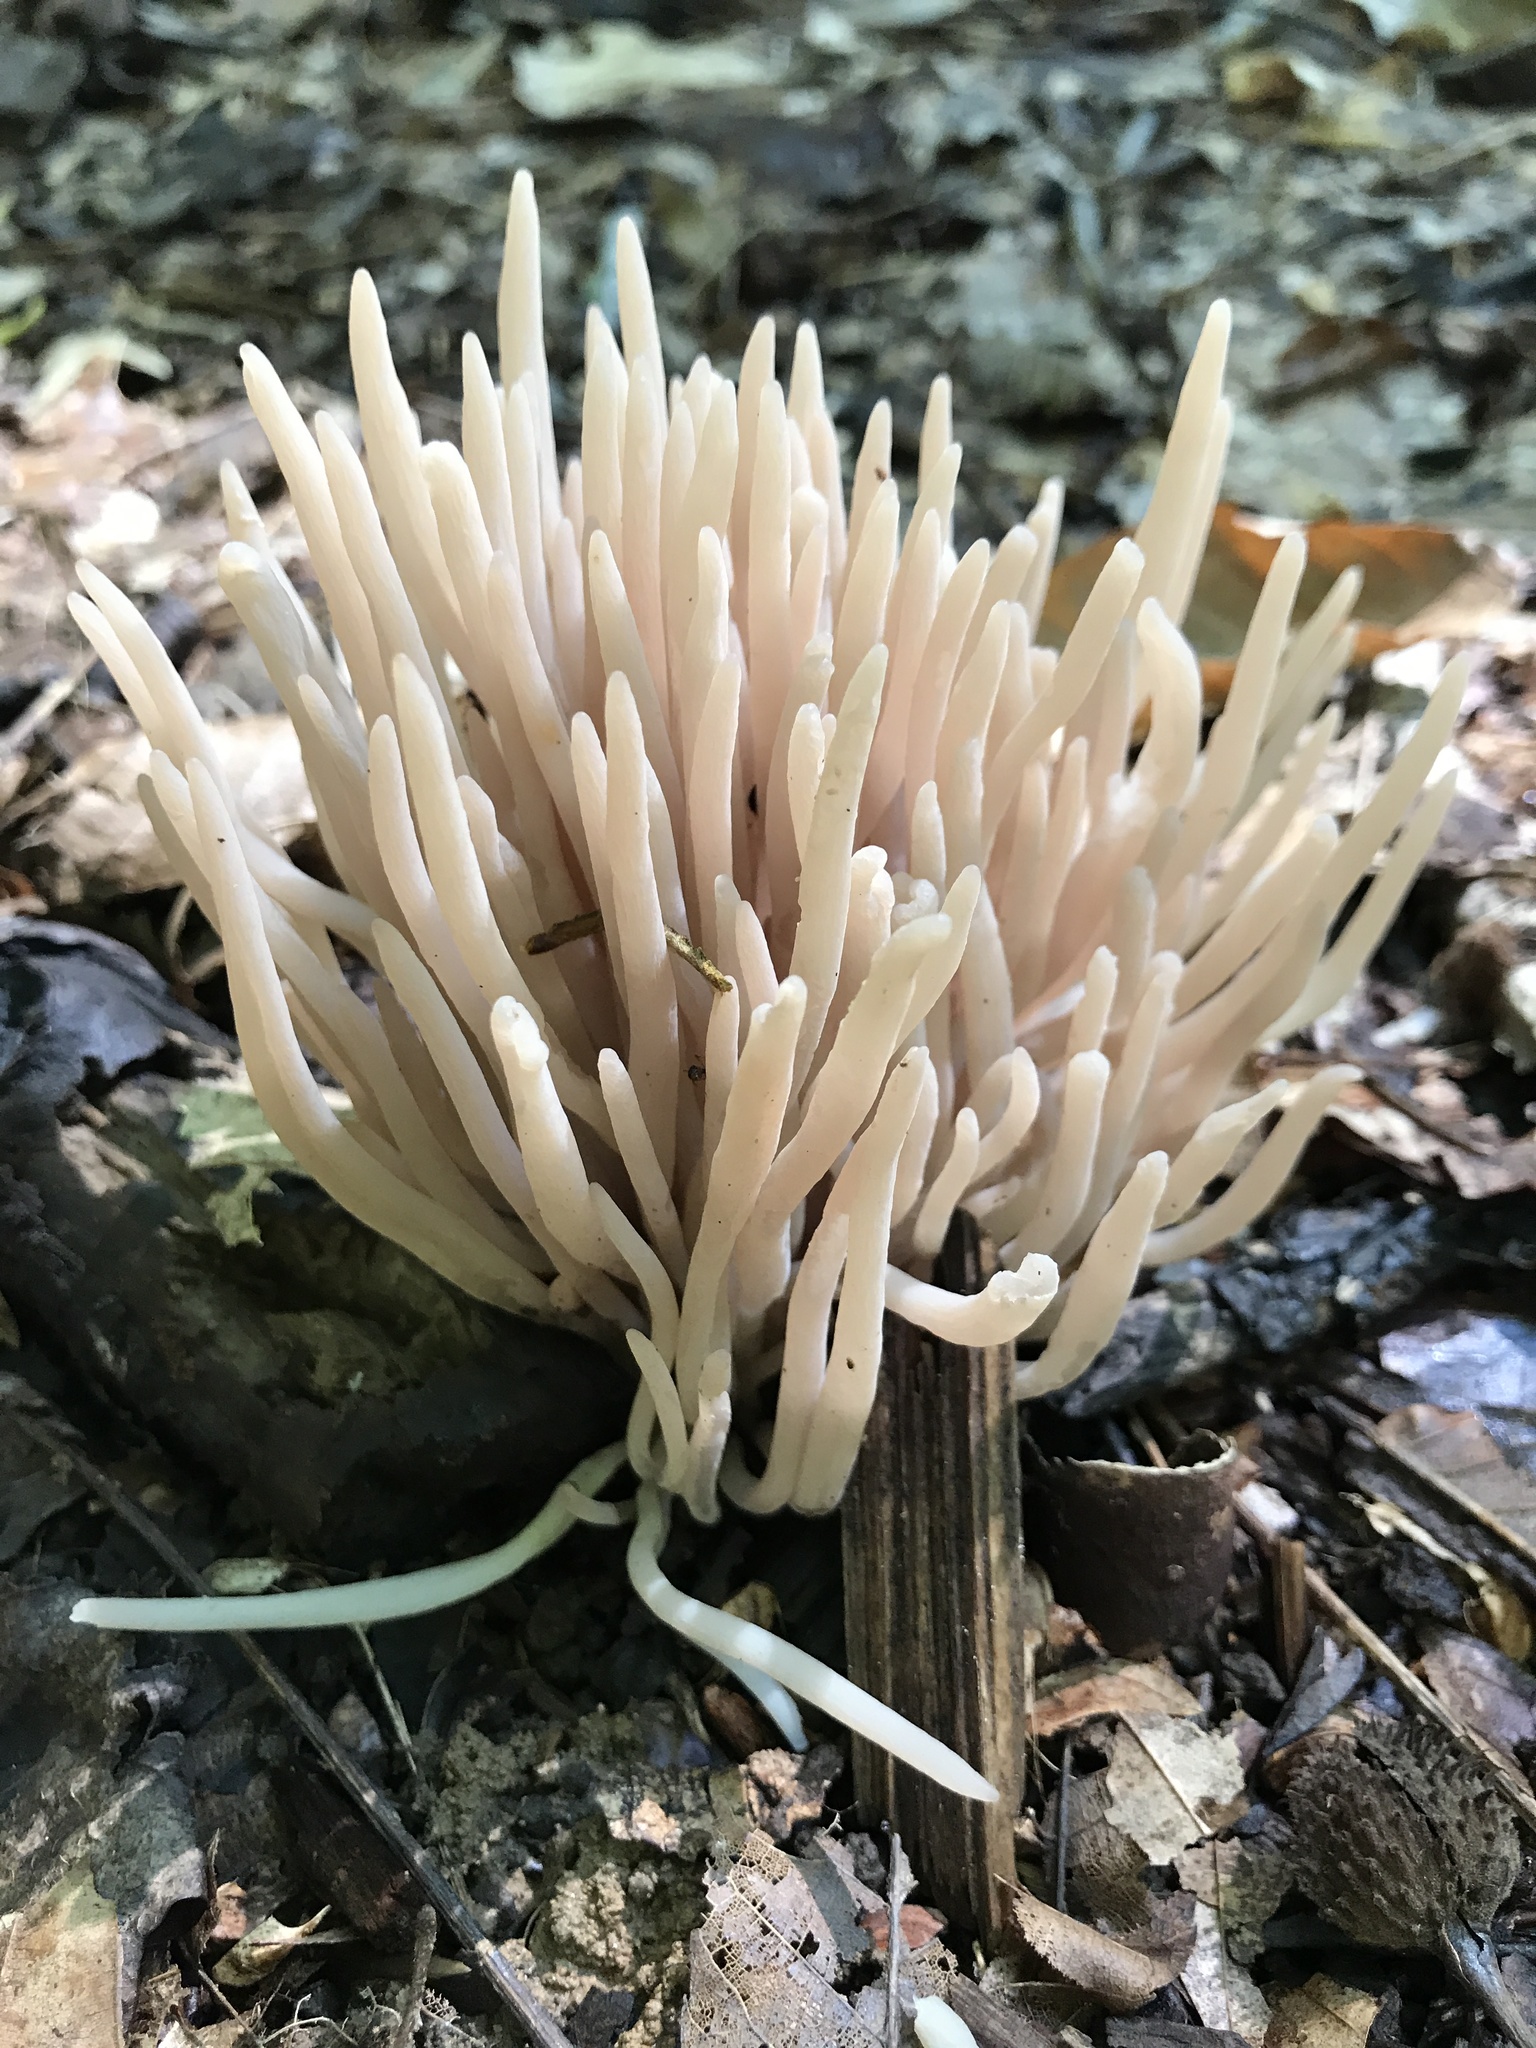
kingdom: Fungi
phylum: Basidiomycota
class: Agaricomycetes
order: Agaricales
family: Clavariaceae
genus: Clavaria
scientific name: Clavaria fumosa
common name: Smoky spindles
